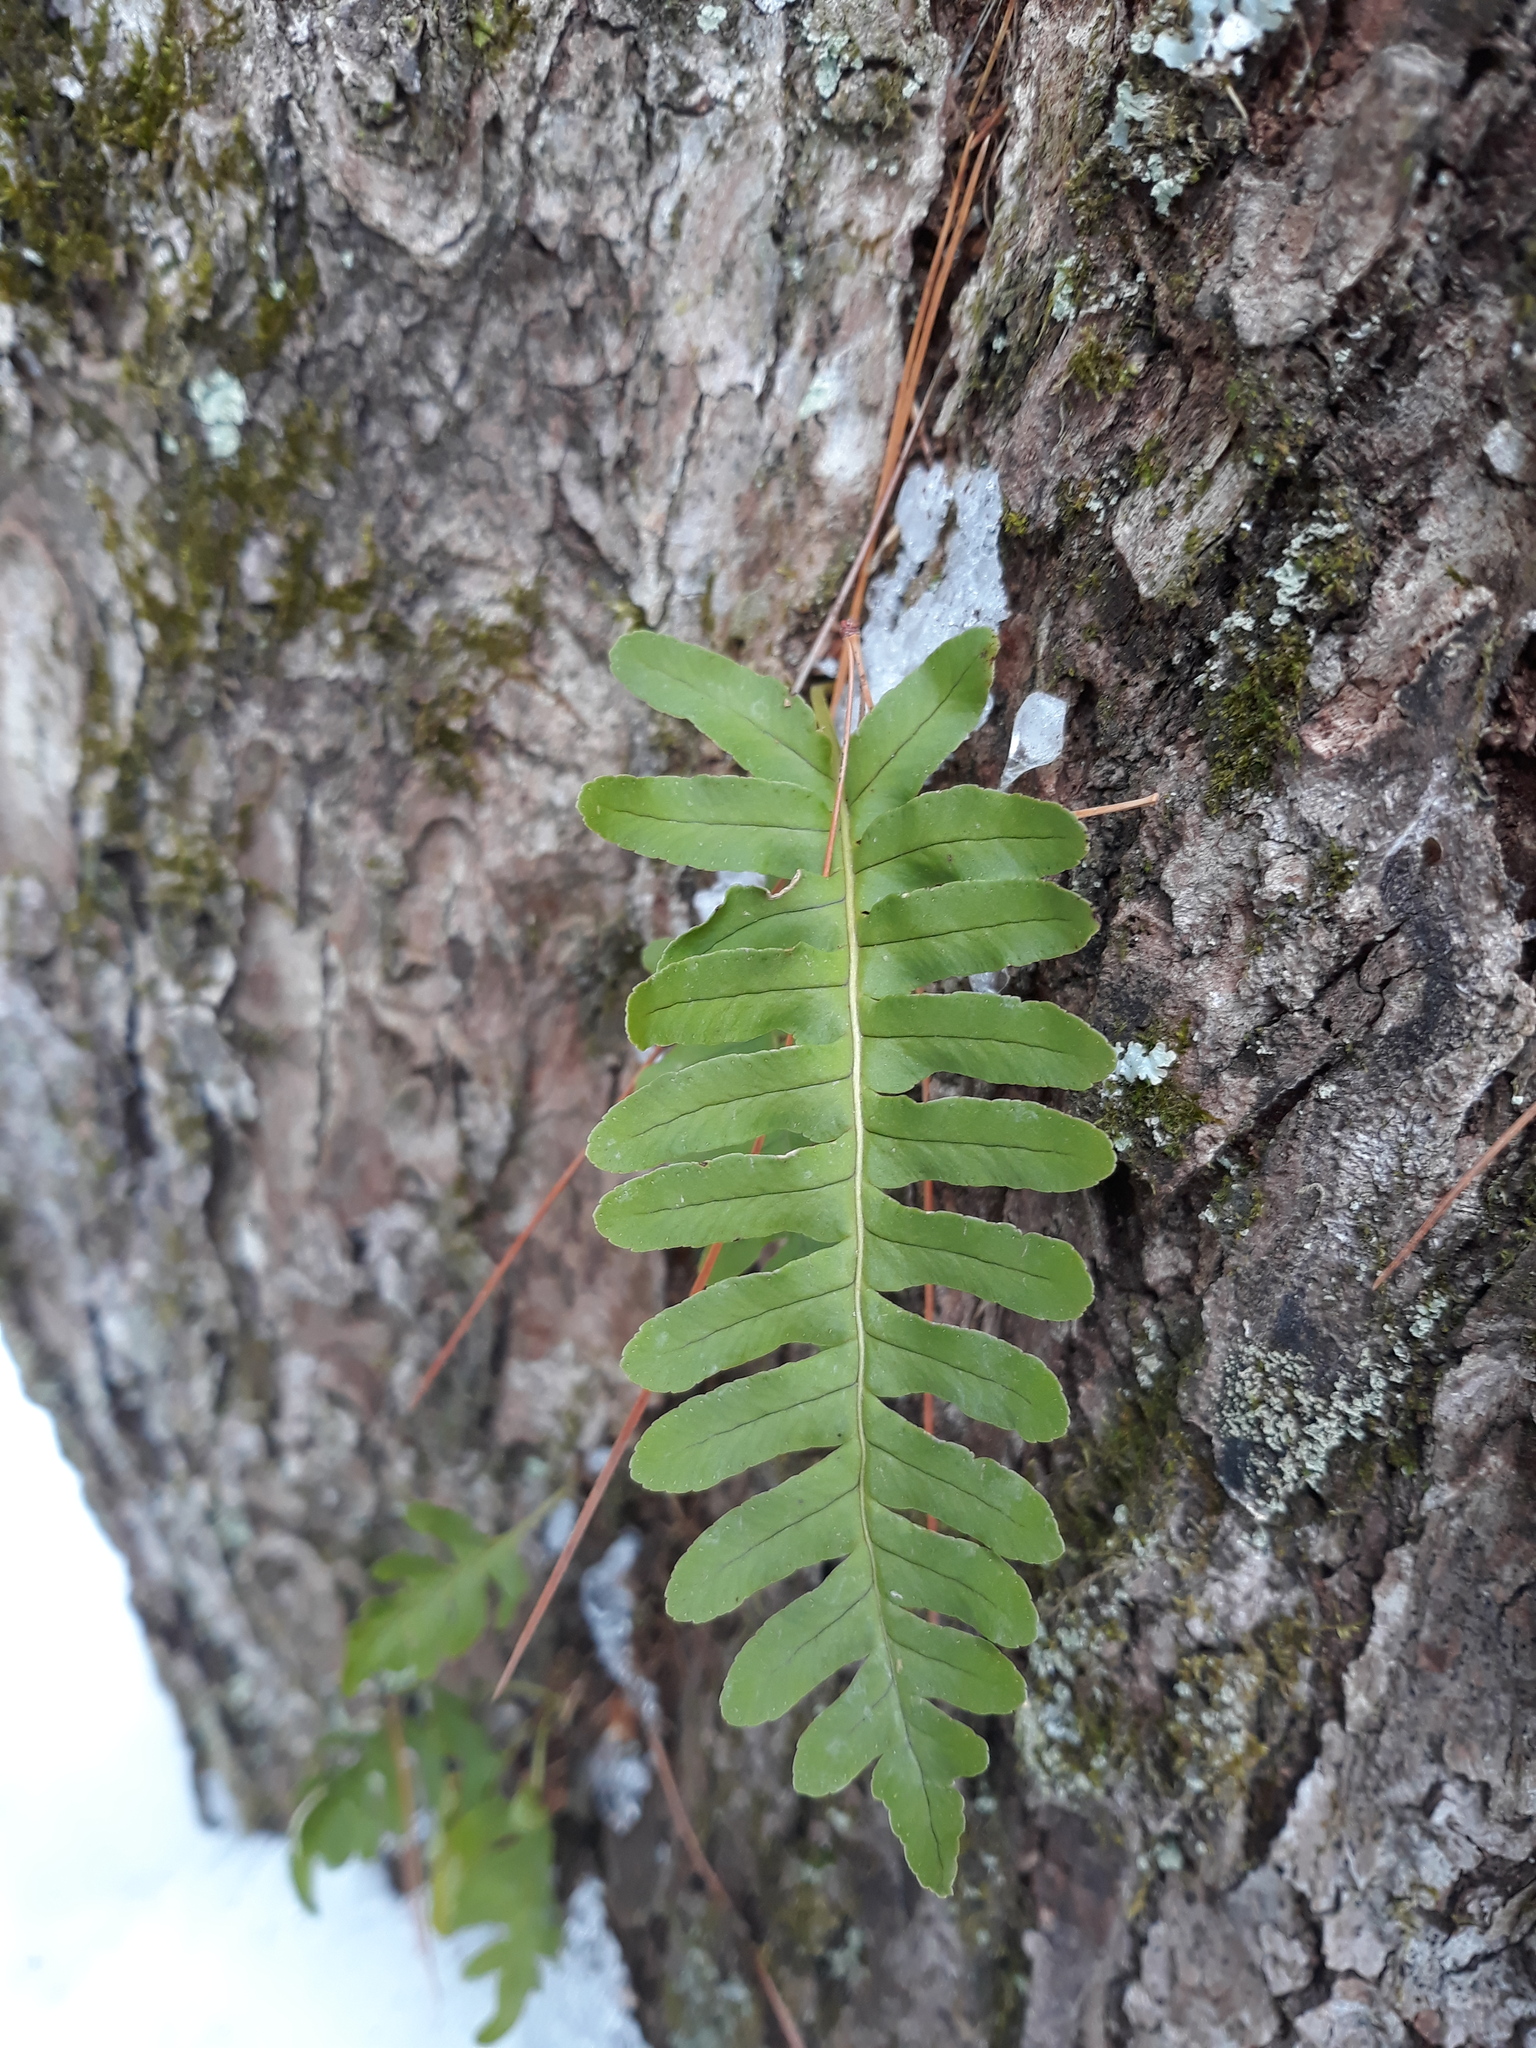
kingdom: Plantae
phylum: Tracheophyta
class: Polypodiopsida
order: Polypodiales
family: Polypodiaceae
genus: Polypodium
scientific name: Polypodium virginianum
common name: American wall fern
